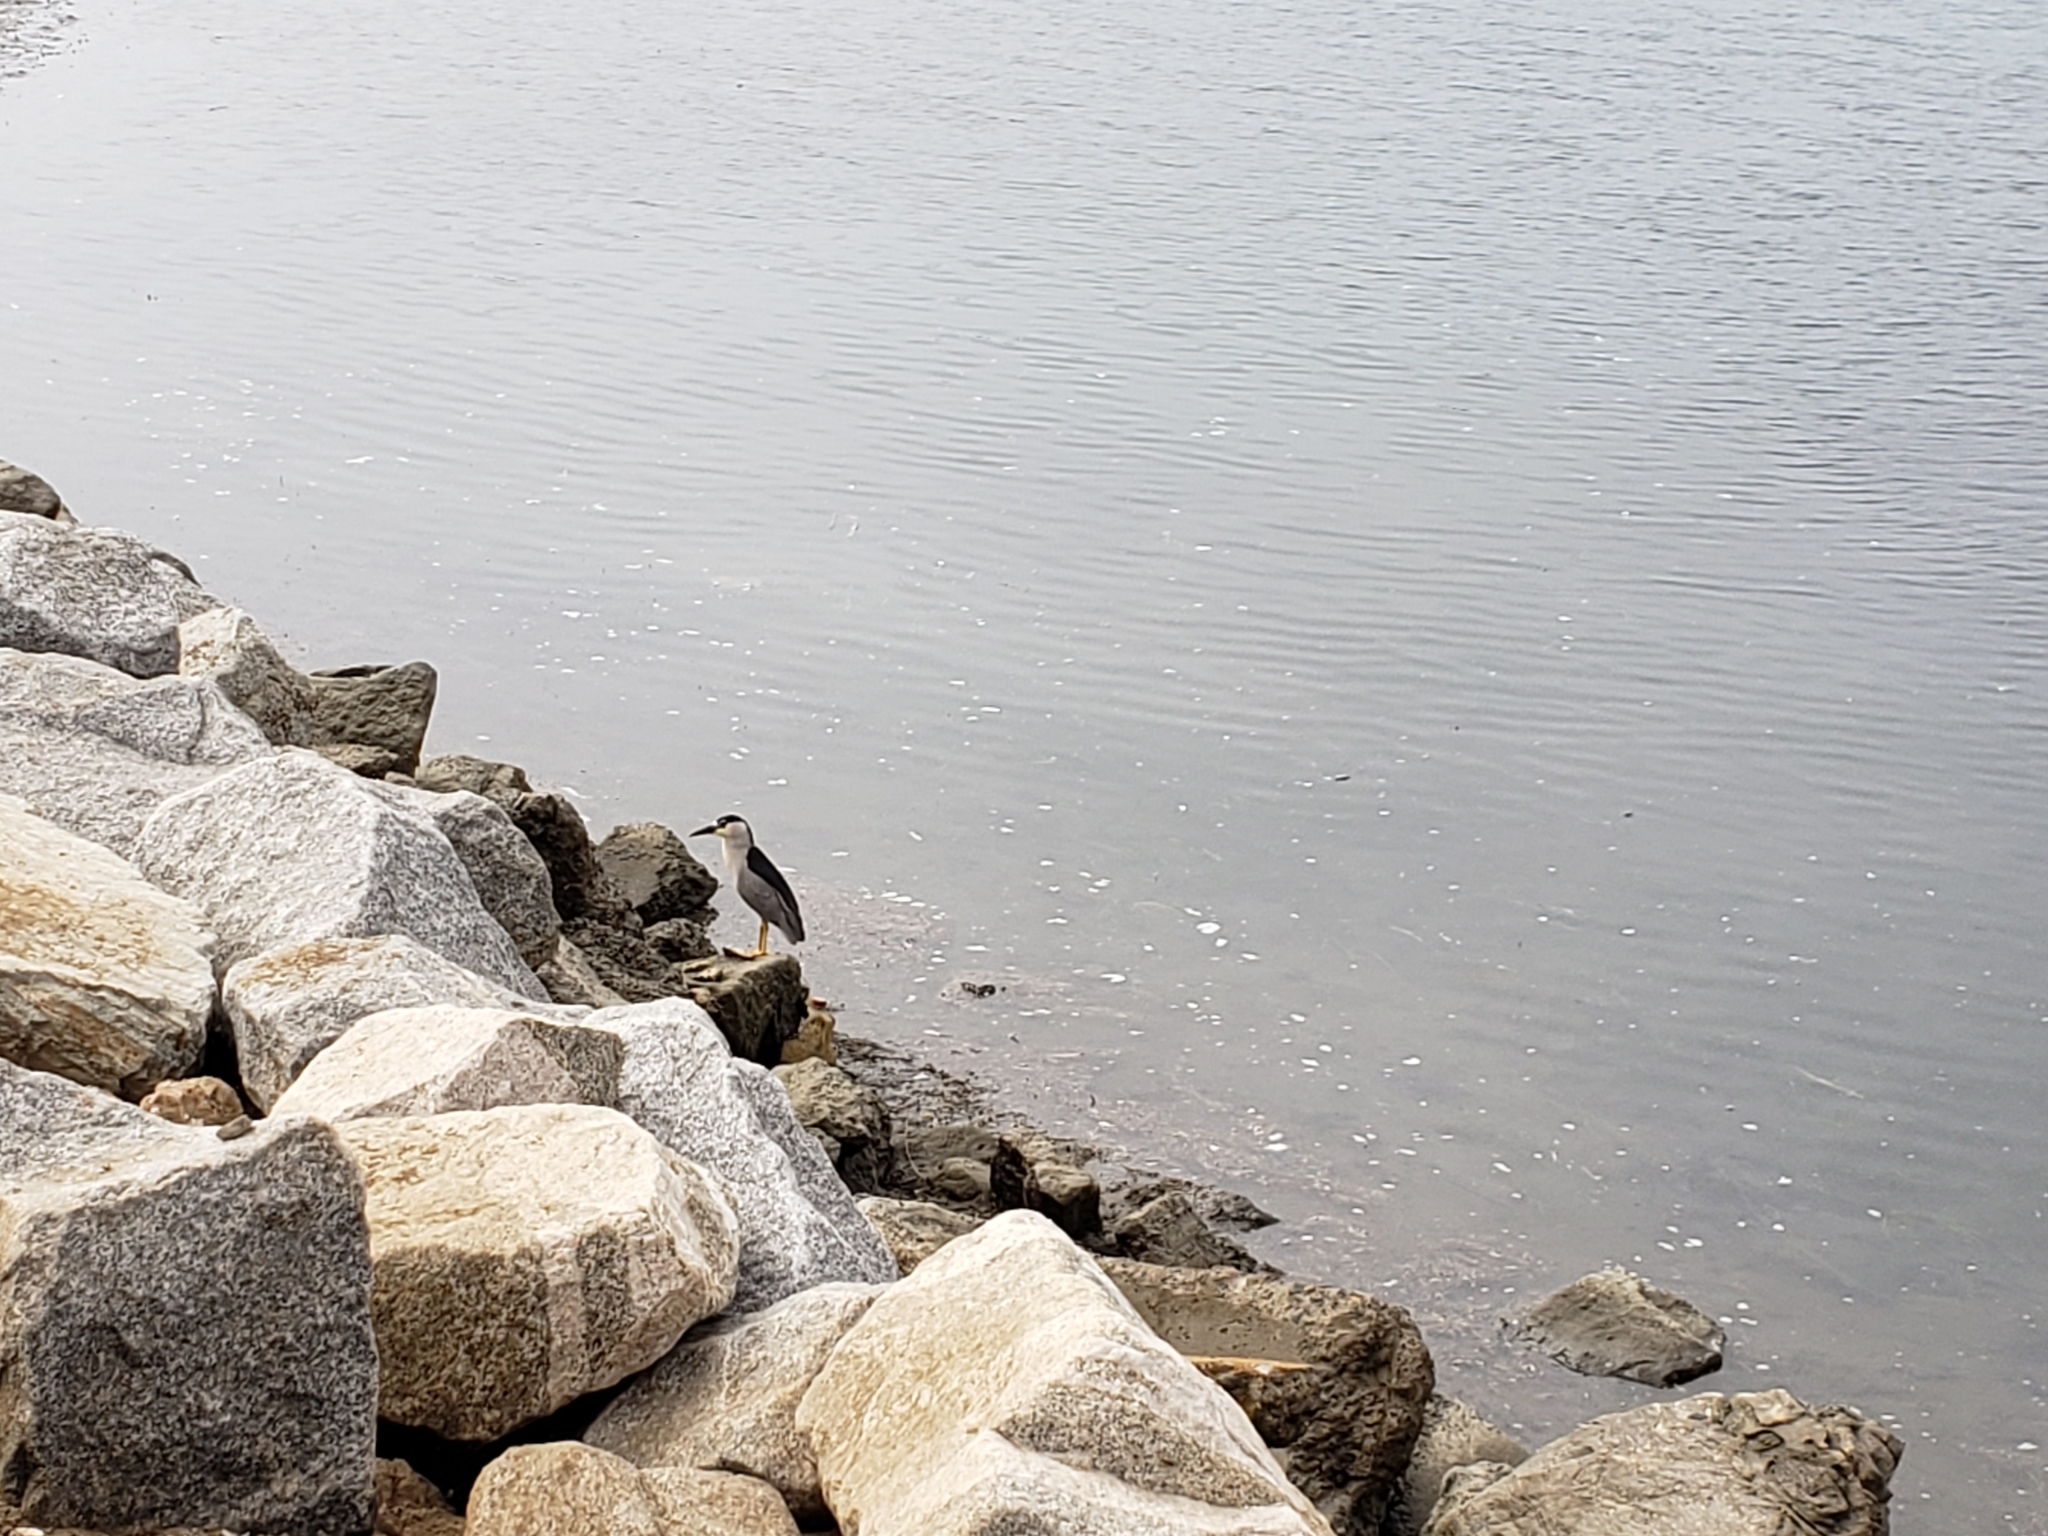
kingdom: Animalia
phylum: Chordata
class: Aves
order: Pelecaniformes
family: Ardeidae
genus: Nycticorax
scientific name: Nycticorax nycticorax
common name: Black-crowned night heron
